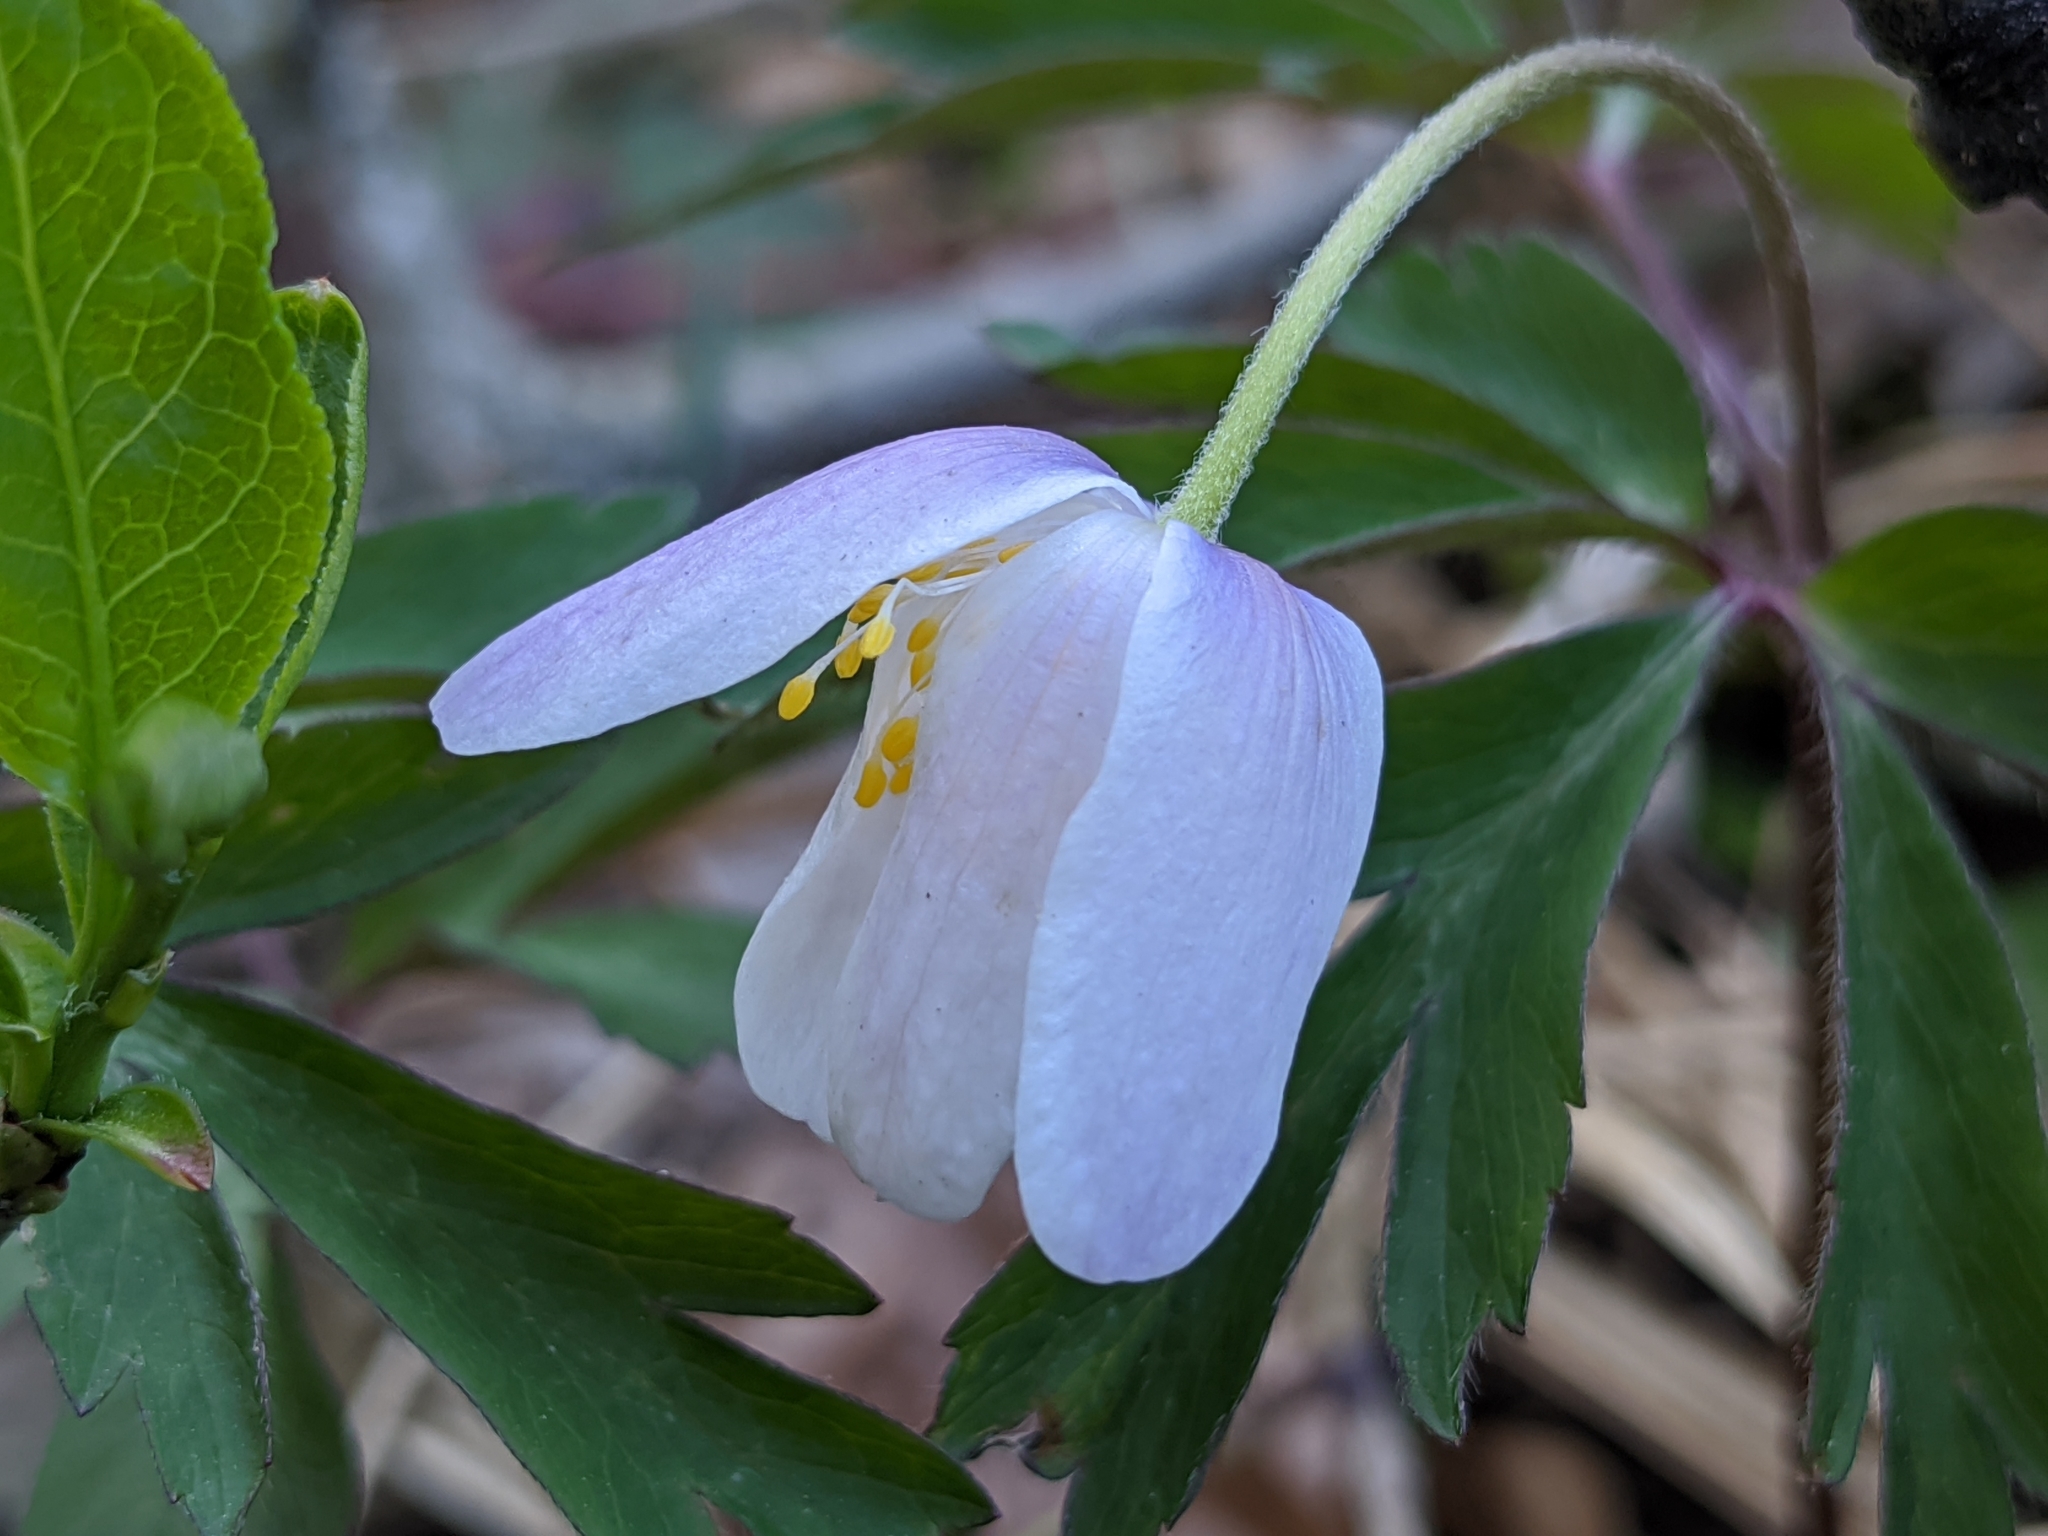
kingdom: Plantae
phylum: Tracheophyta
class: Magnoliopsida
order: Ranunculales
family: Ranunculaceae
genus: Anemone
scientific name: Anemone nemorosa
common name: Wood anemone
